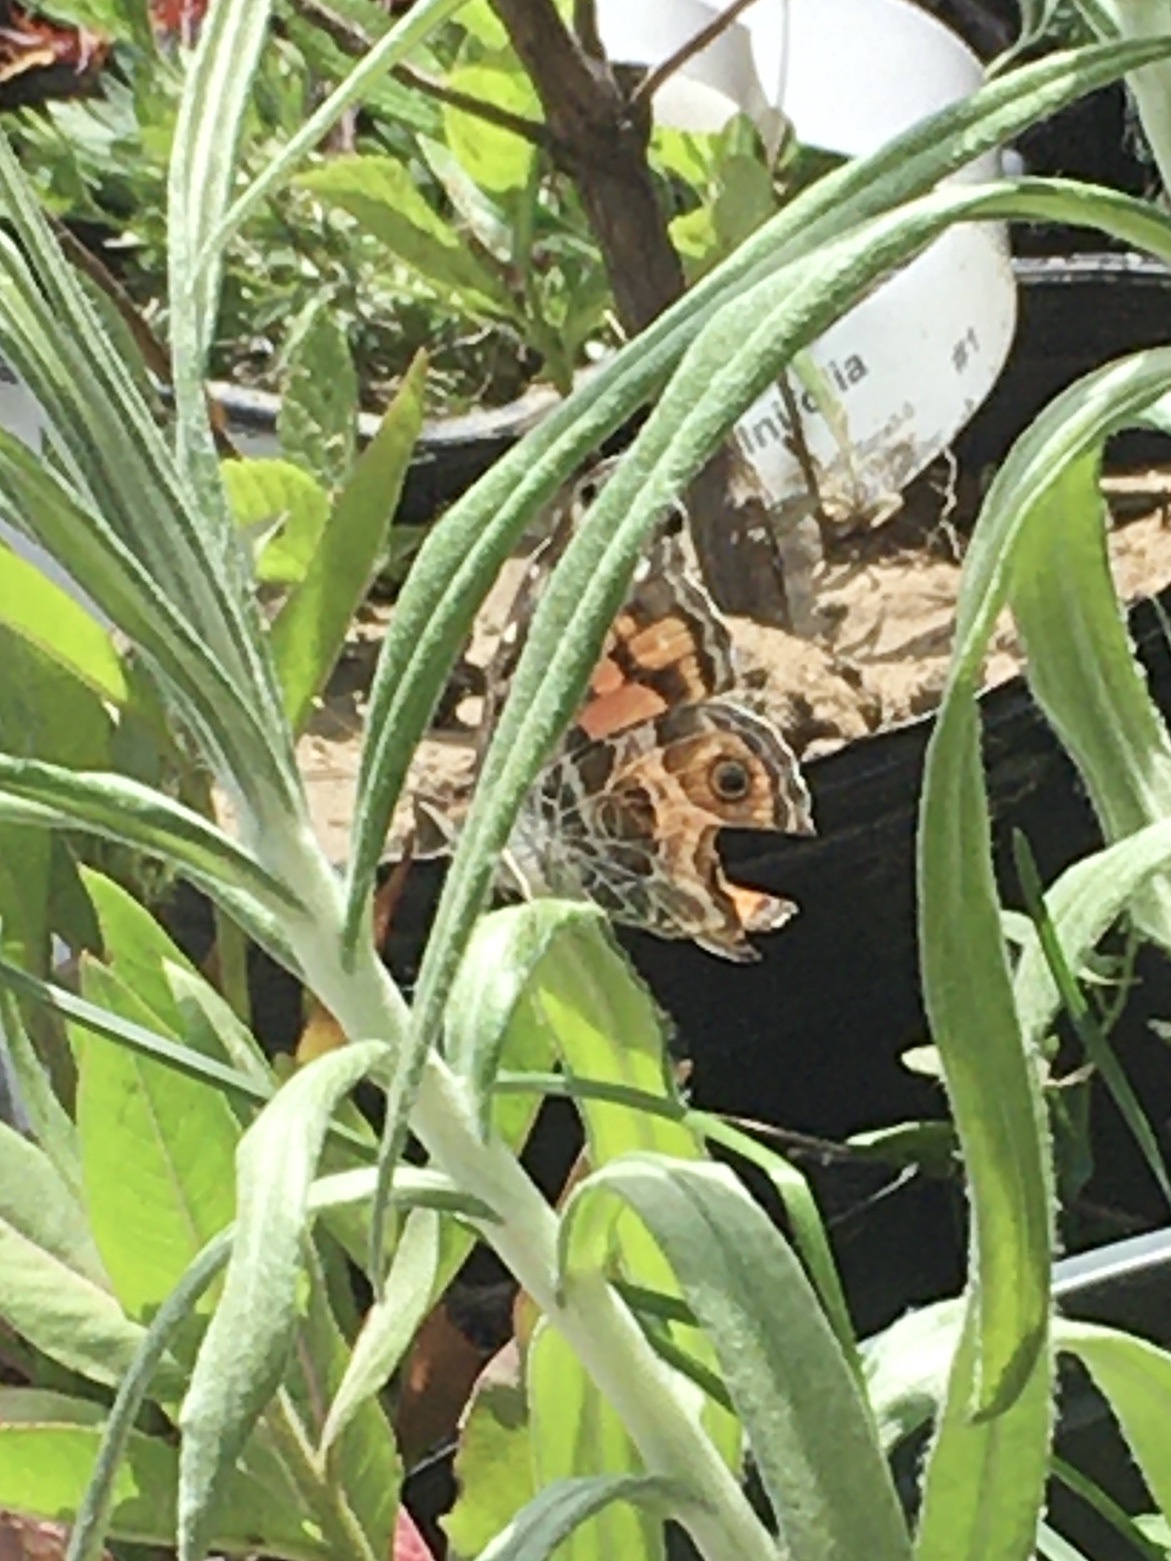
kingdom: Animalia
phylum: Arthropoda
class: Insecta
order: Lepidoptera
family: Nymphalidae
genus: Vanessa
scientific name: Vanessa virginiensis
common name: American lady
